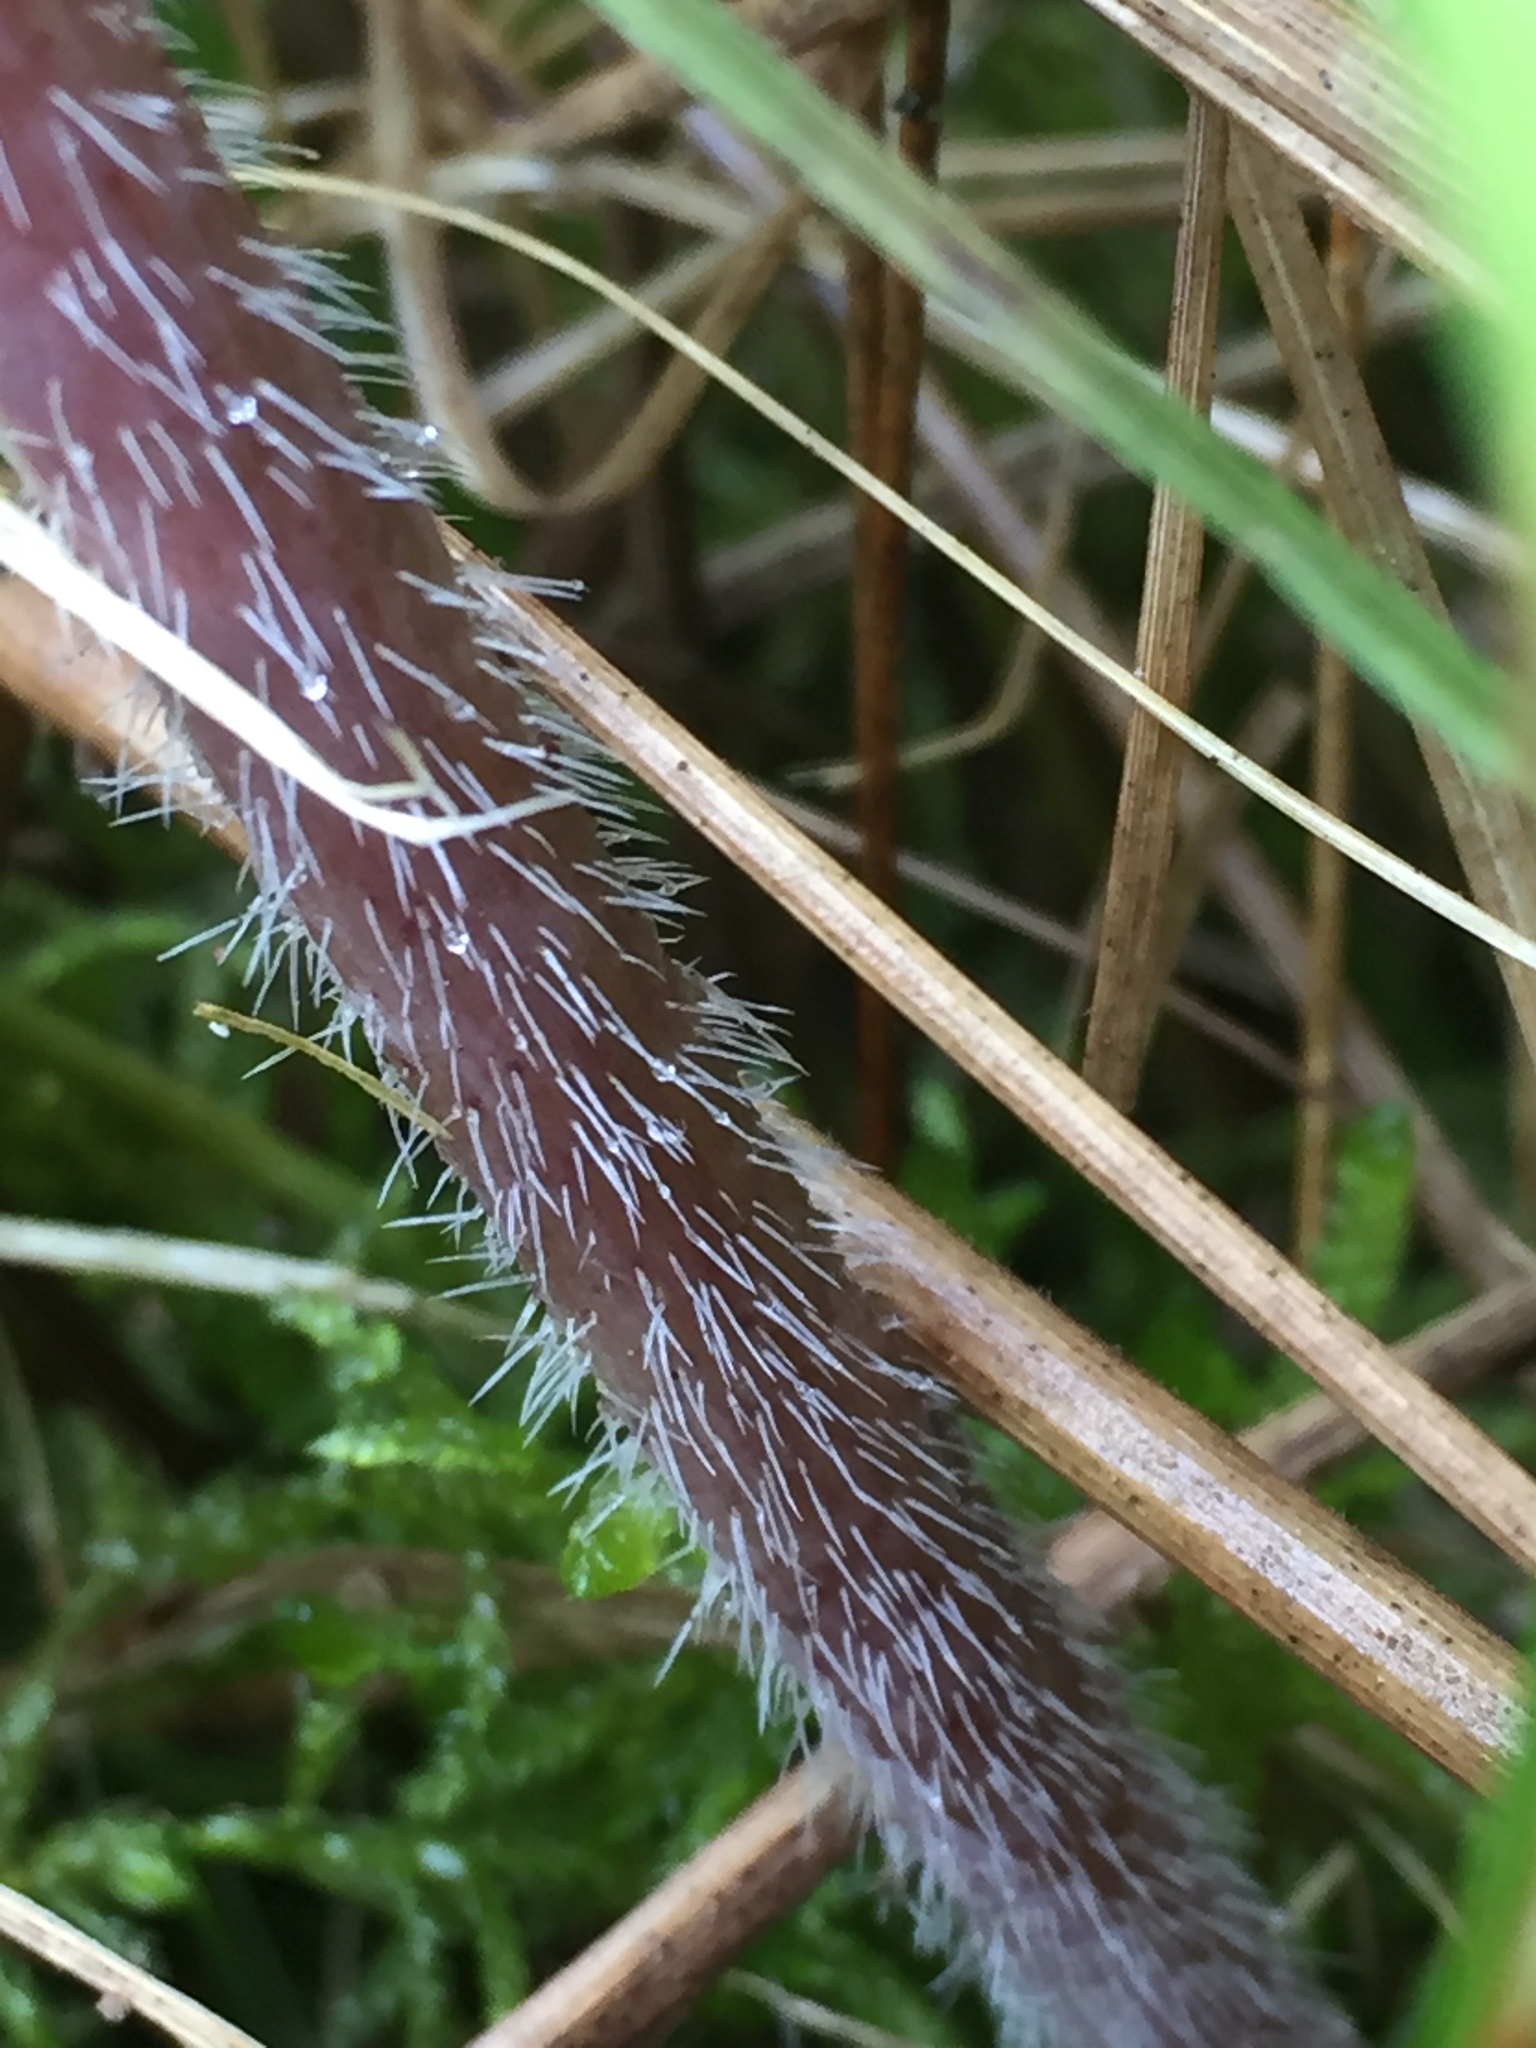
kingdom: Plantae
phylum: Tracheophyta
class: Magnoliopsida
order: Apiales
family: Apiaceae
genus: Chaerophyllum
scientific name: Chaerophyllum bulbosum
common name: Bulbous chervil
